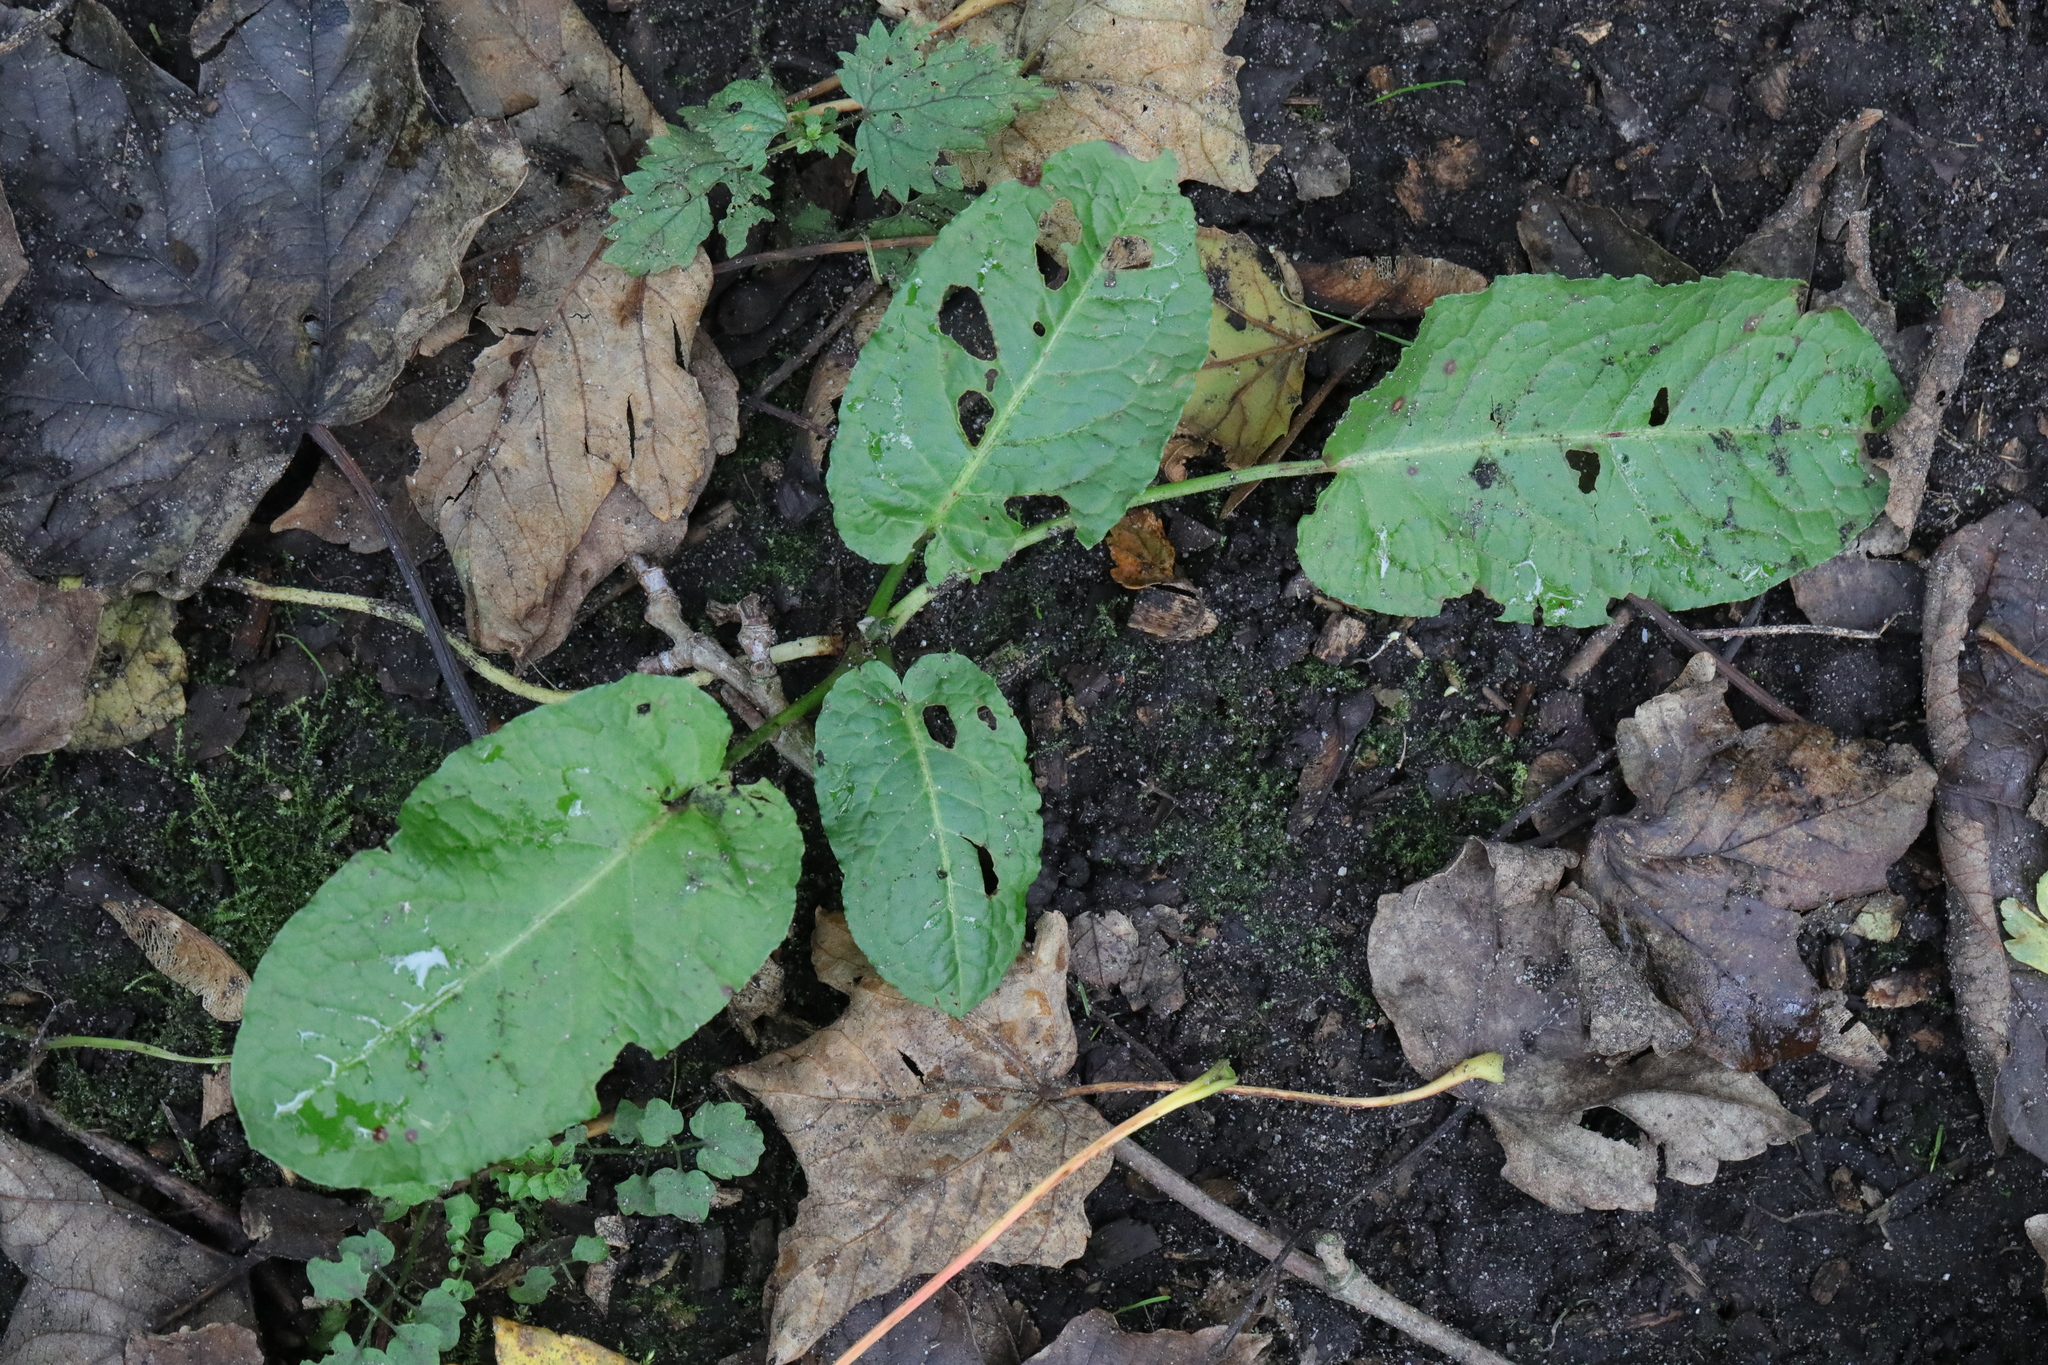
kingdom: Plantae
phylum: Tracheophyta
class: Magnoliopsida
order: Caryophyllales
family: Polygonaceae
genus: Rumex
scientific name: Rumex obtusifolius
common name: Bitter dock
